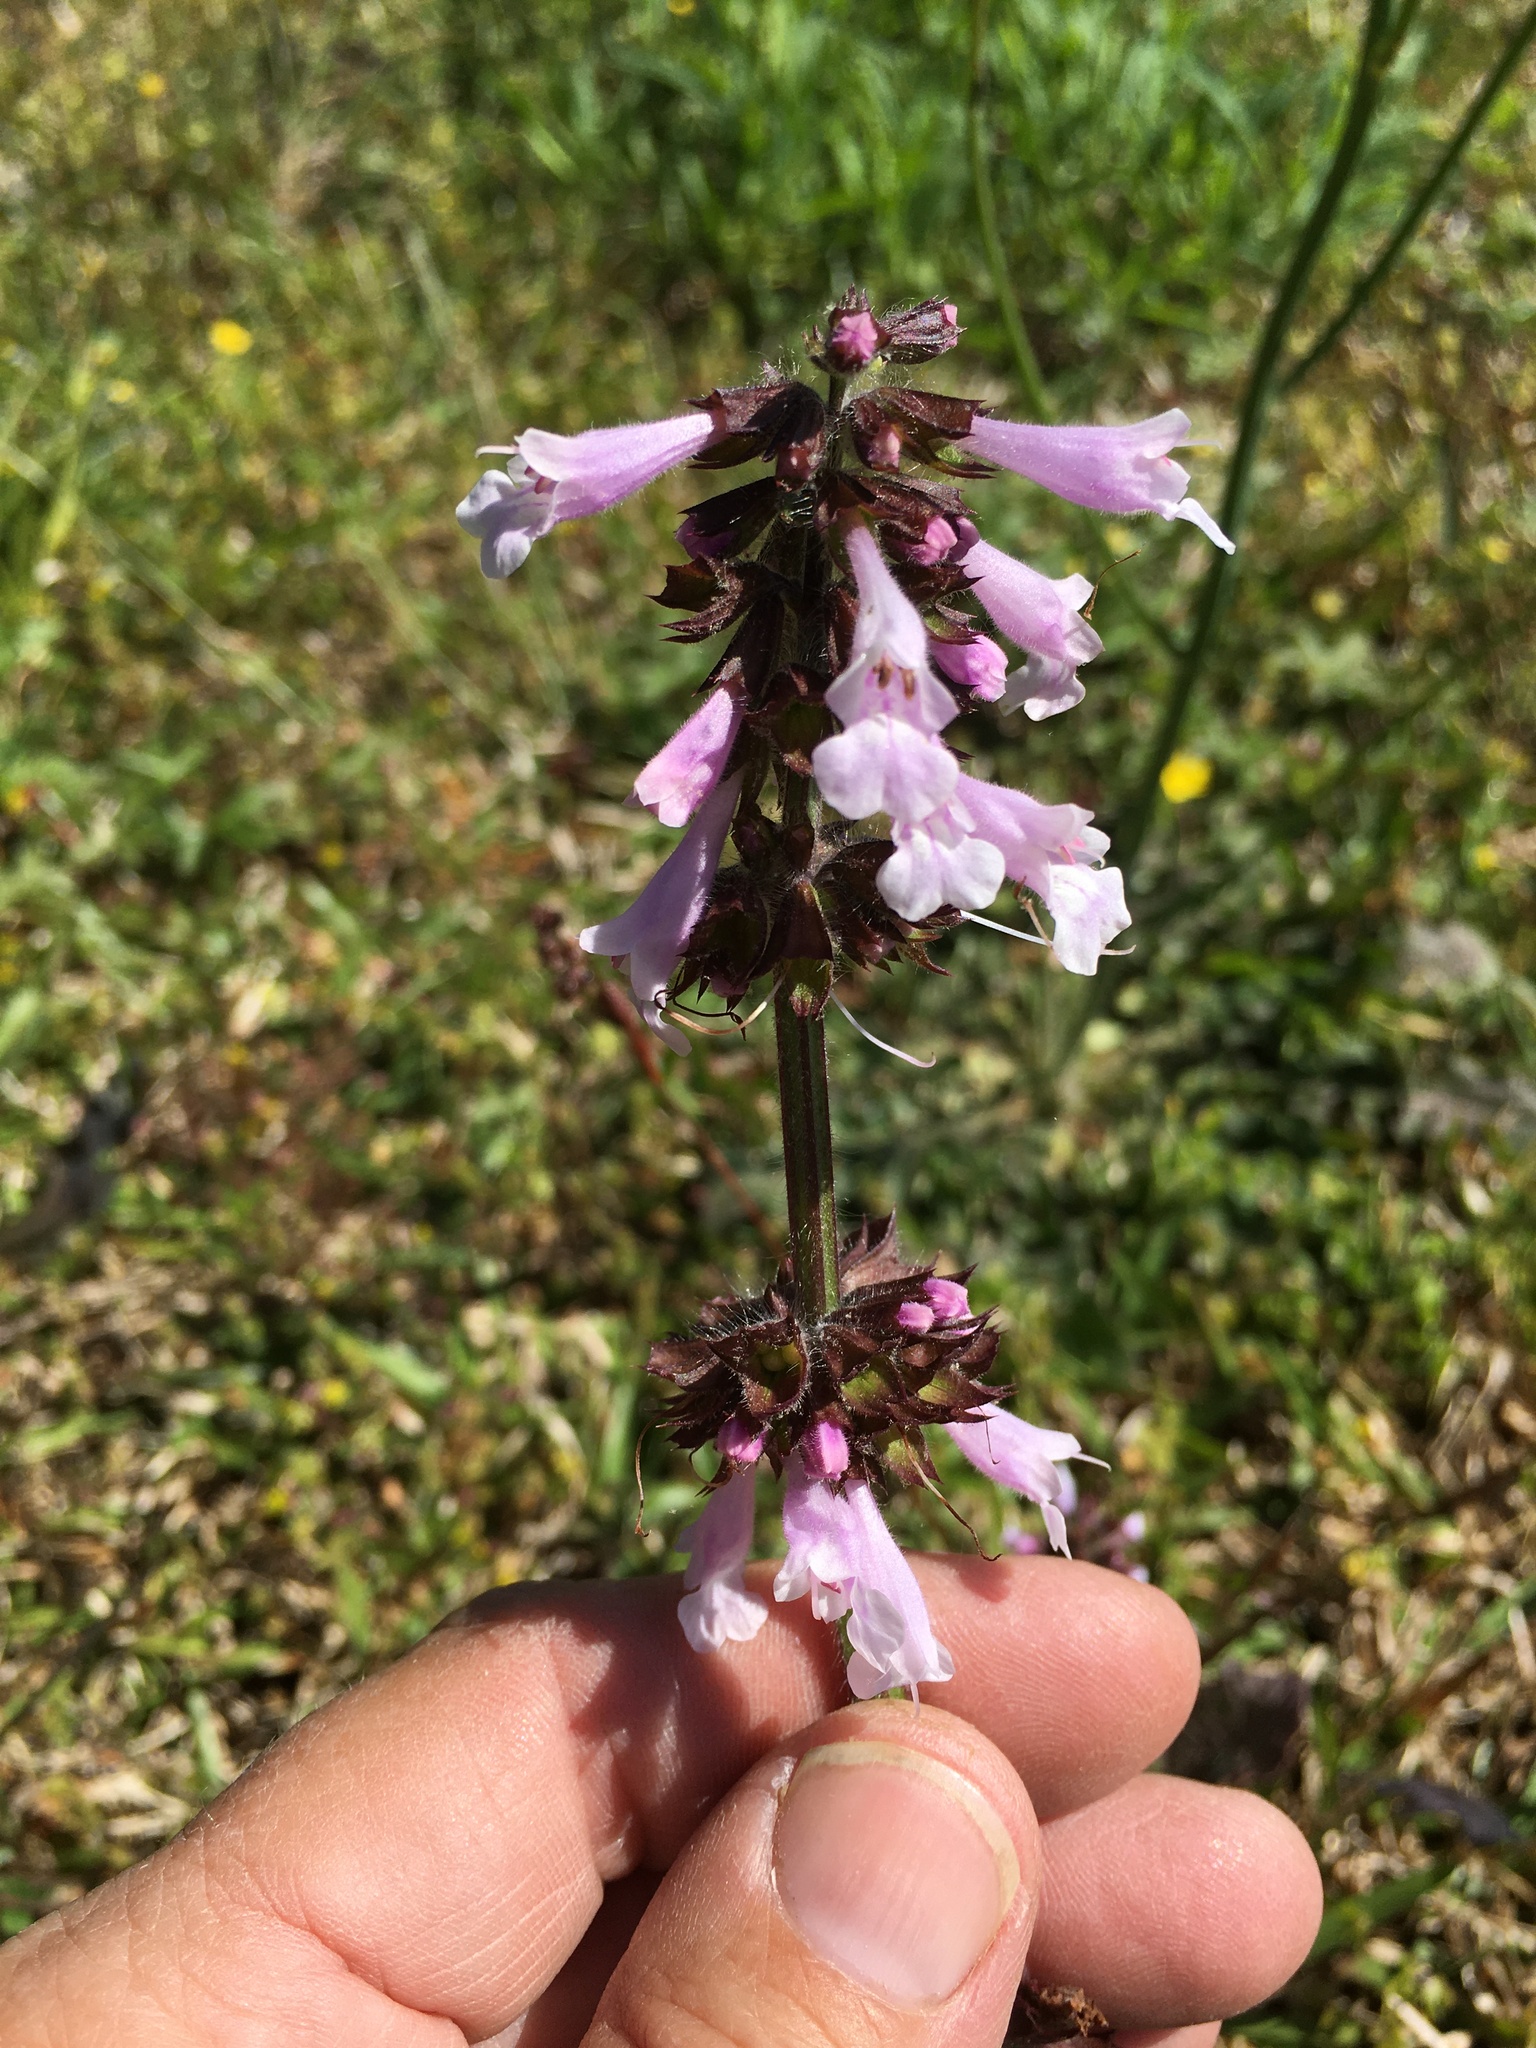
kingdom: Plantae
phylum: Tracheophyta
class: Magnoliopsida
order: Lamiales
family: Lamiaceae
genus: Salvia
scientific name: Salvia lyrata
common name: Cancerweed
